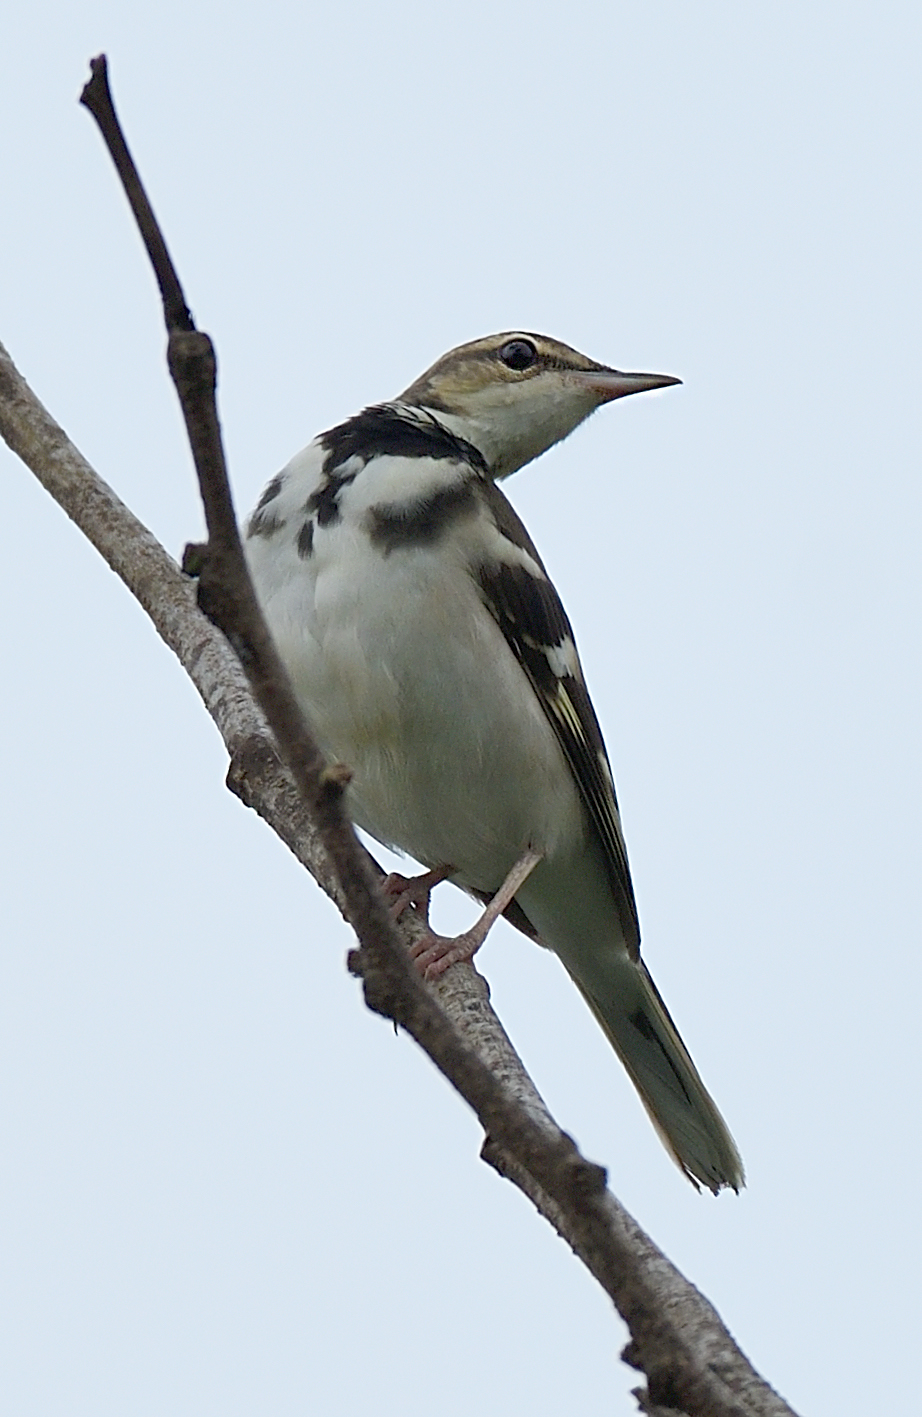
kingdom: Animalia
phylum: Chordata
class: Aves
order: Passeriformes
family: Motacillidae
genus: Dendronanthus
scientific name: Dendronanthus indicus
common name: Forest wagtail
